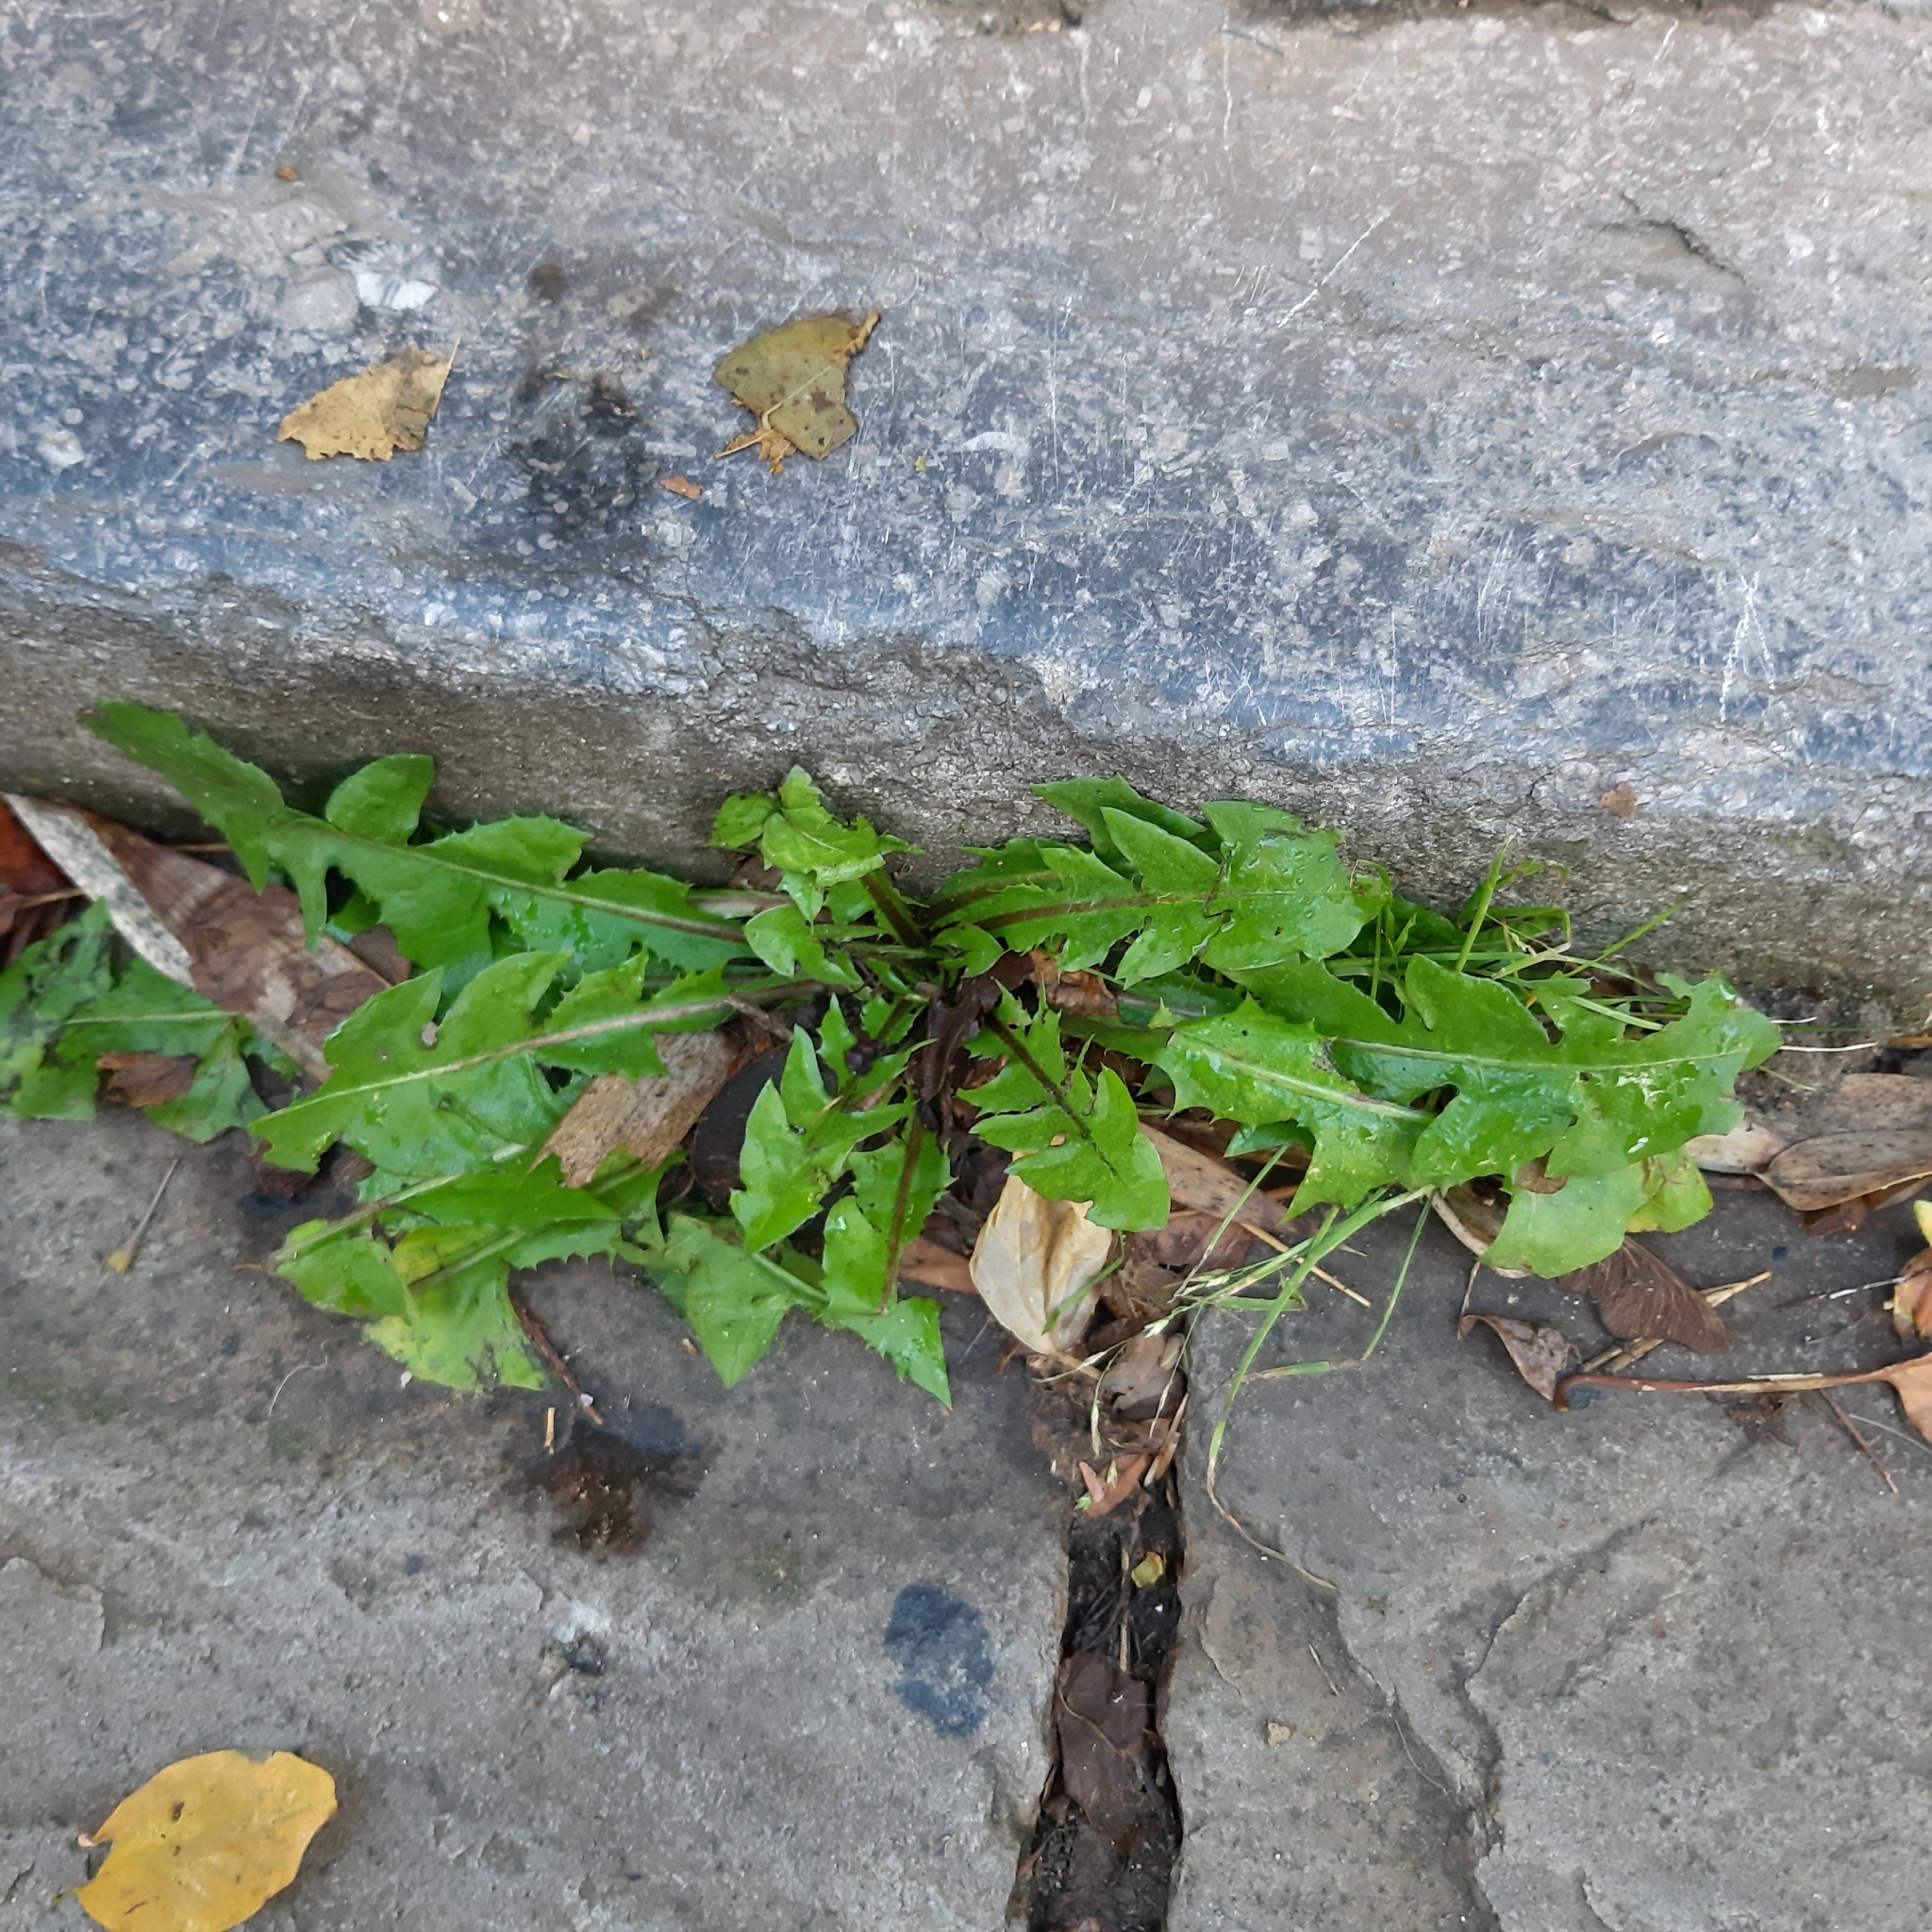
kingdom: Plantae
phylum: Tracheophyta
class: Magnoliopsida
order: Asterales
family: Asteraceae
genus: Taraxacum
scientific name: Taraxacum officinale
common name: Common dandelion
